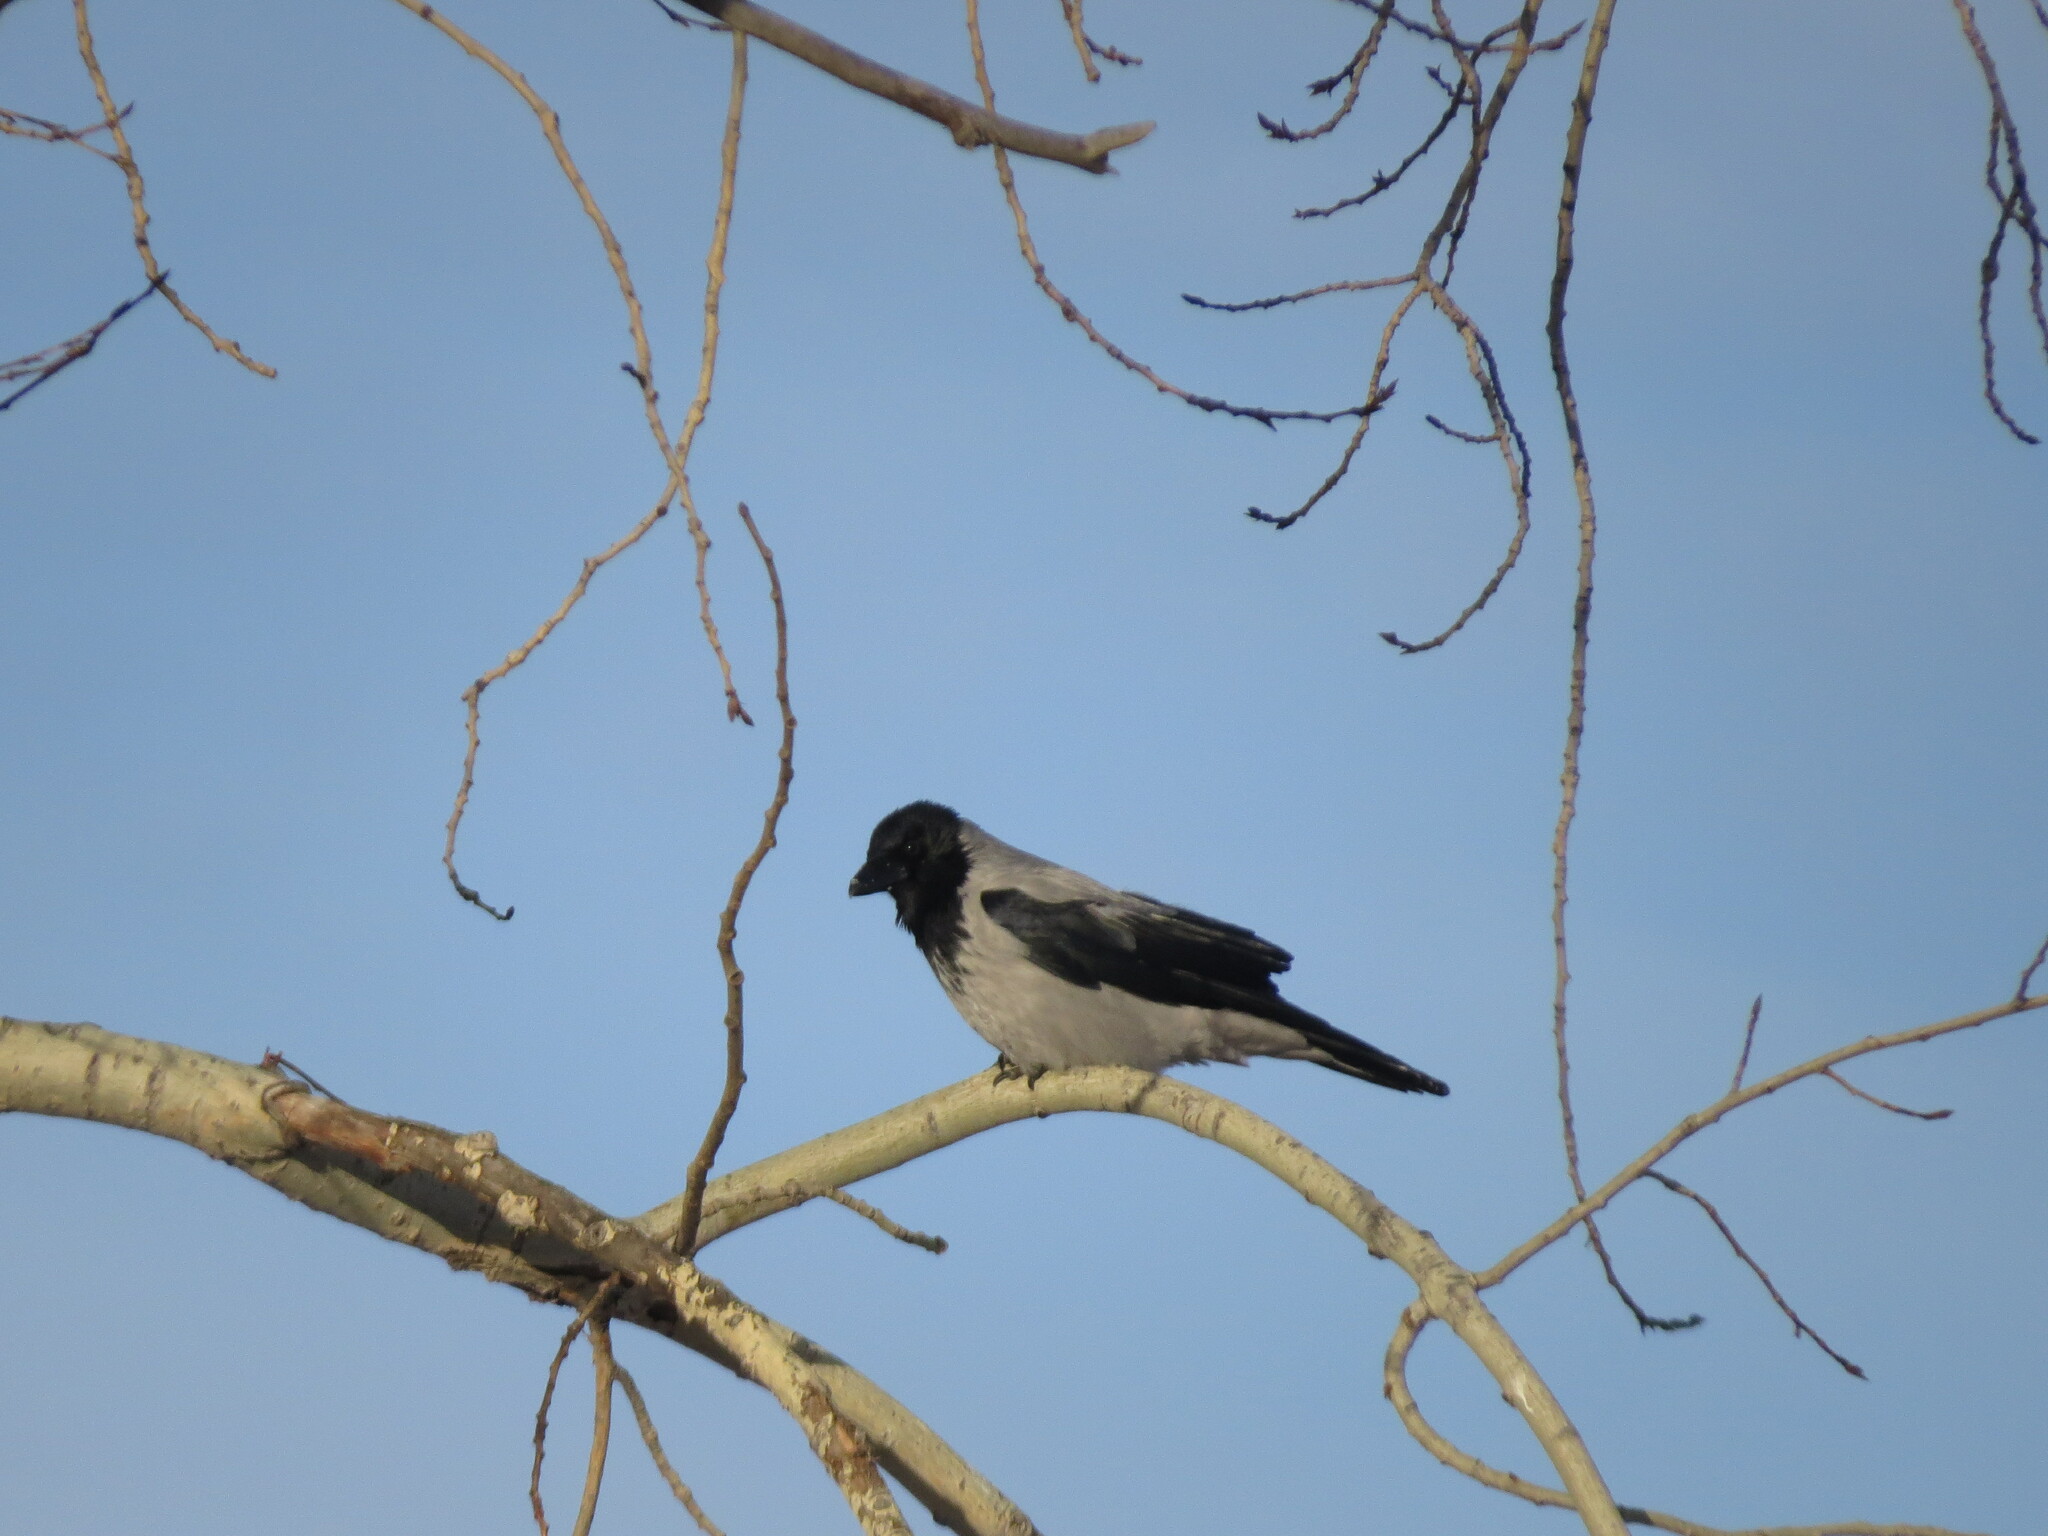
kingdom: Animalia
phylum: Chordata
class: Aves
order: Passeriformes
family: Corvidae
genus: Corvus
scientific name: Corvus cornix
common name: Hooded crow
